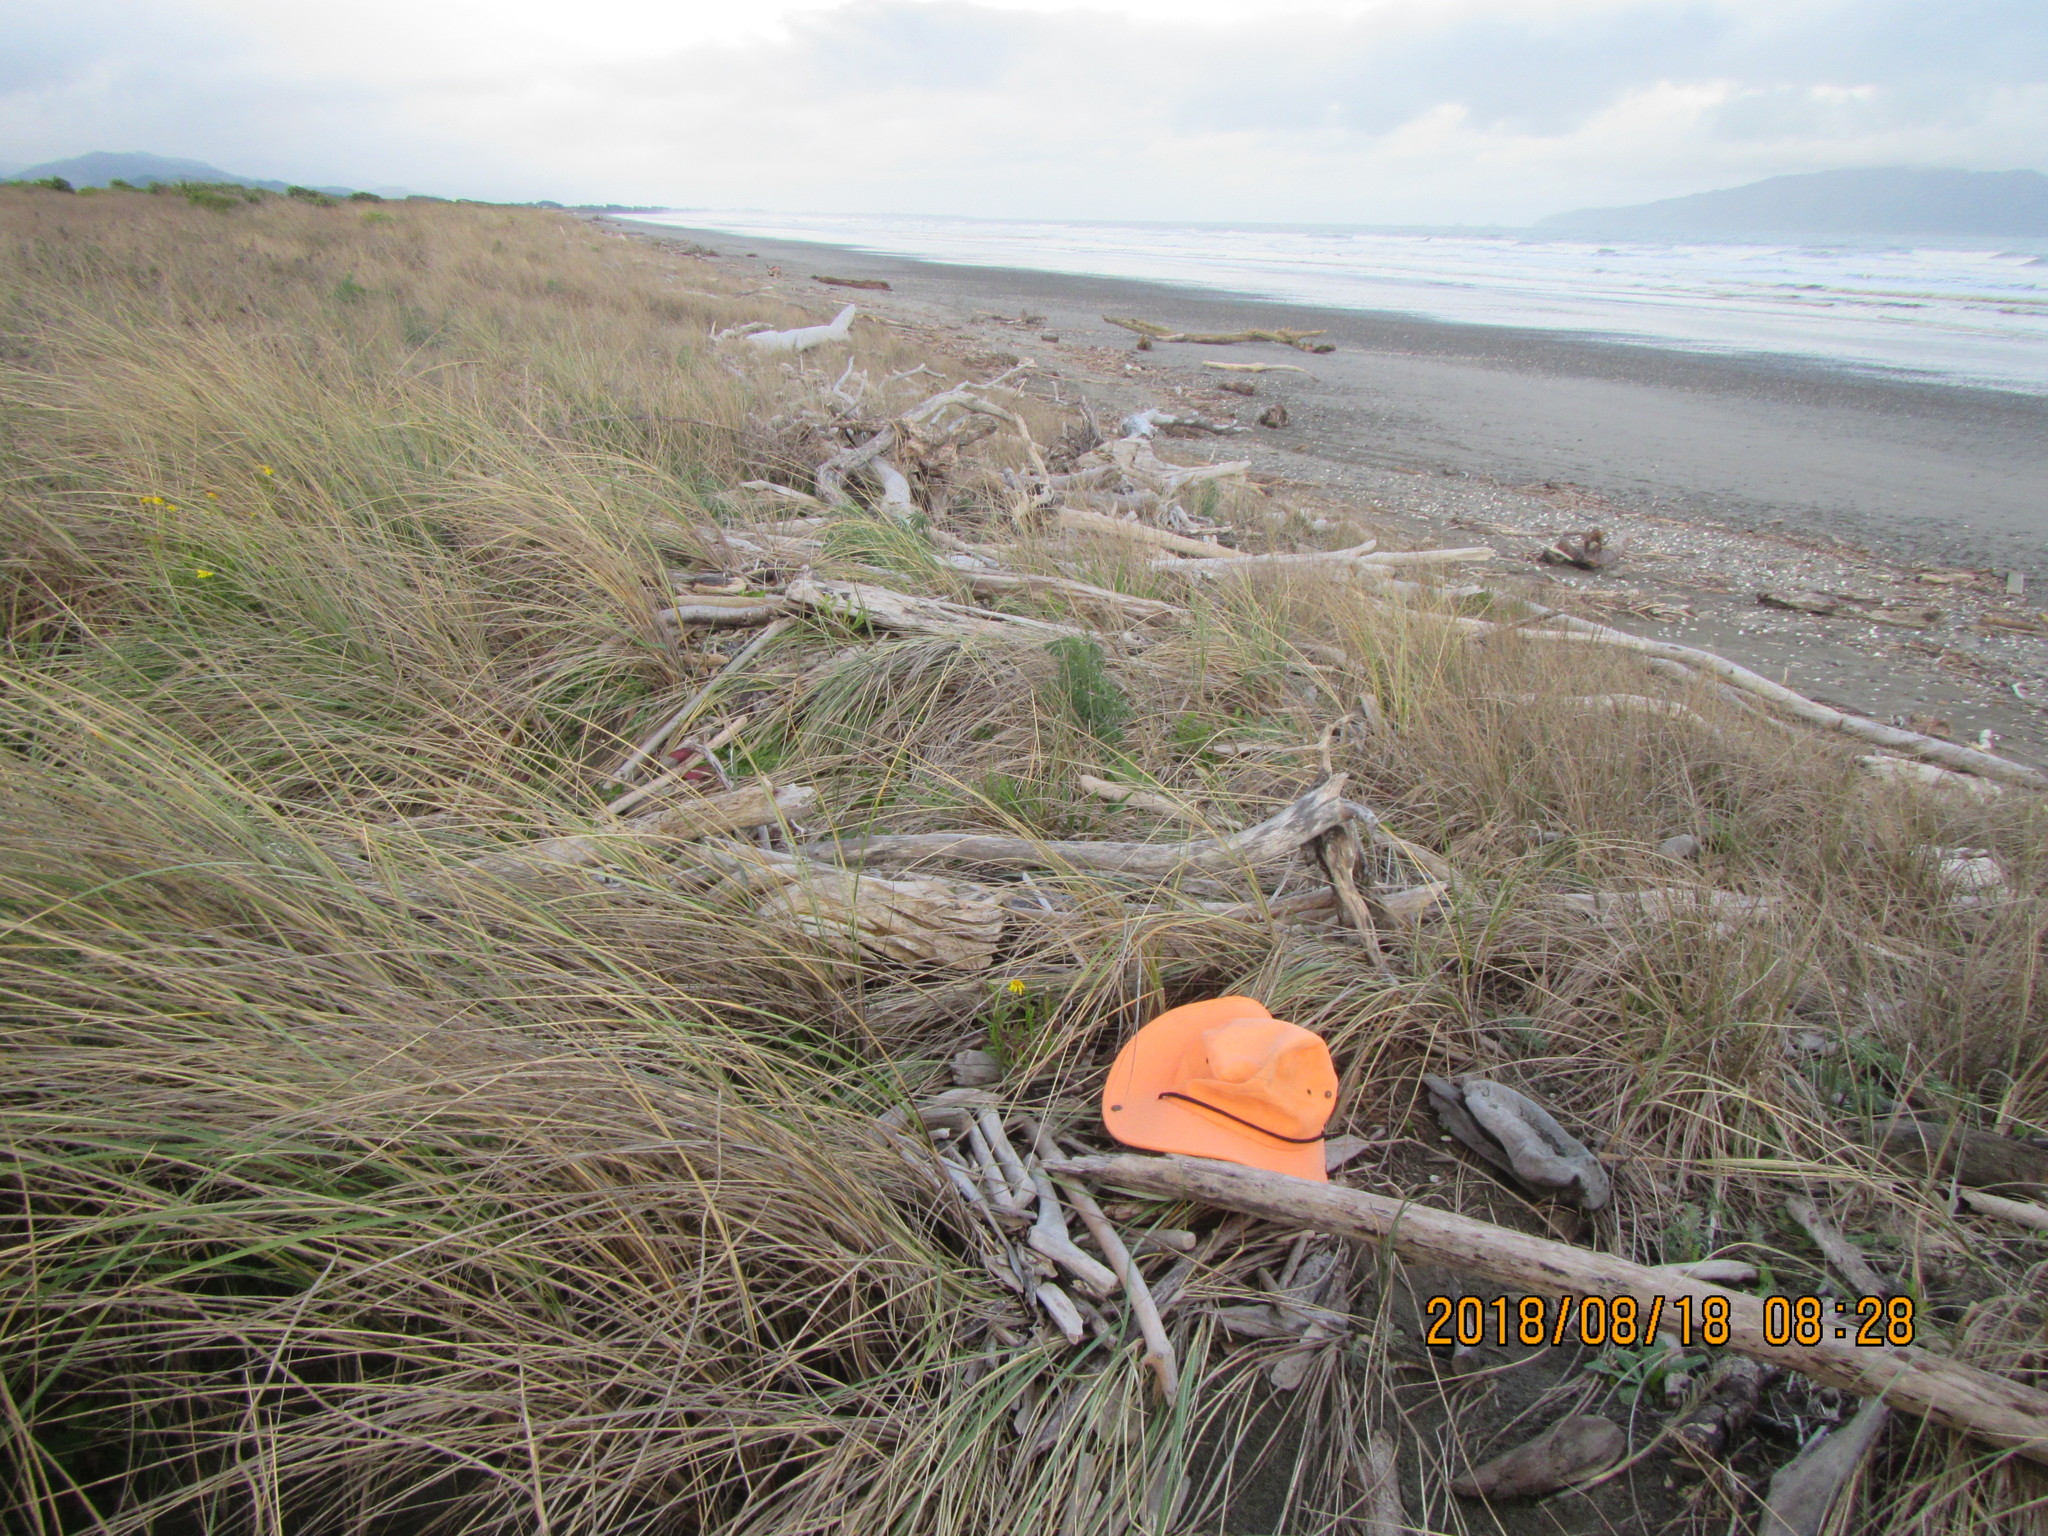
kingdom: Animalia
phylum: Arthropoda
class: Arachnida
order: Araneae
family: Theridiidae
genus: Latrodectus
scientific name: Latrodectus katipo
